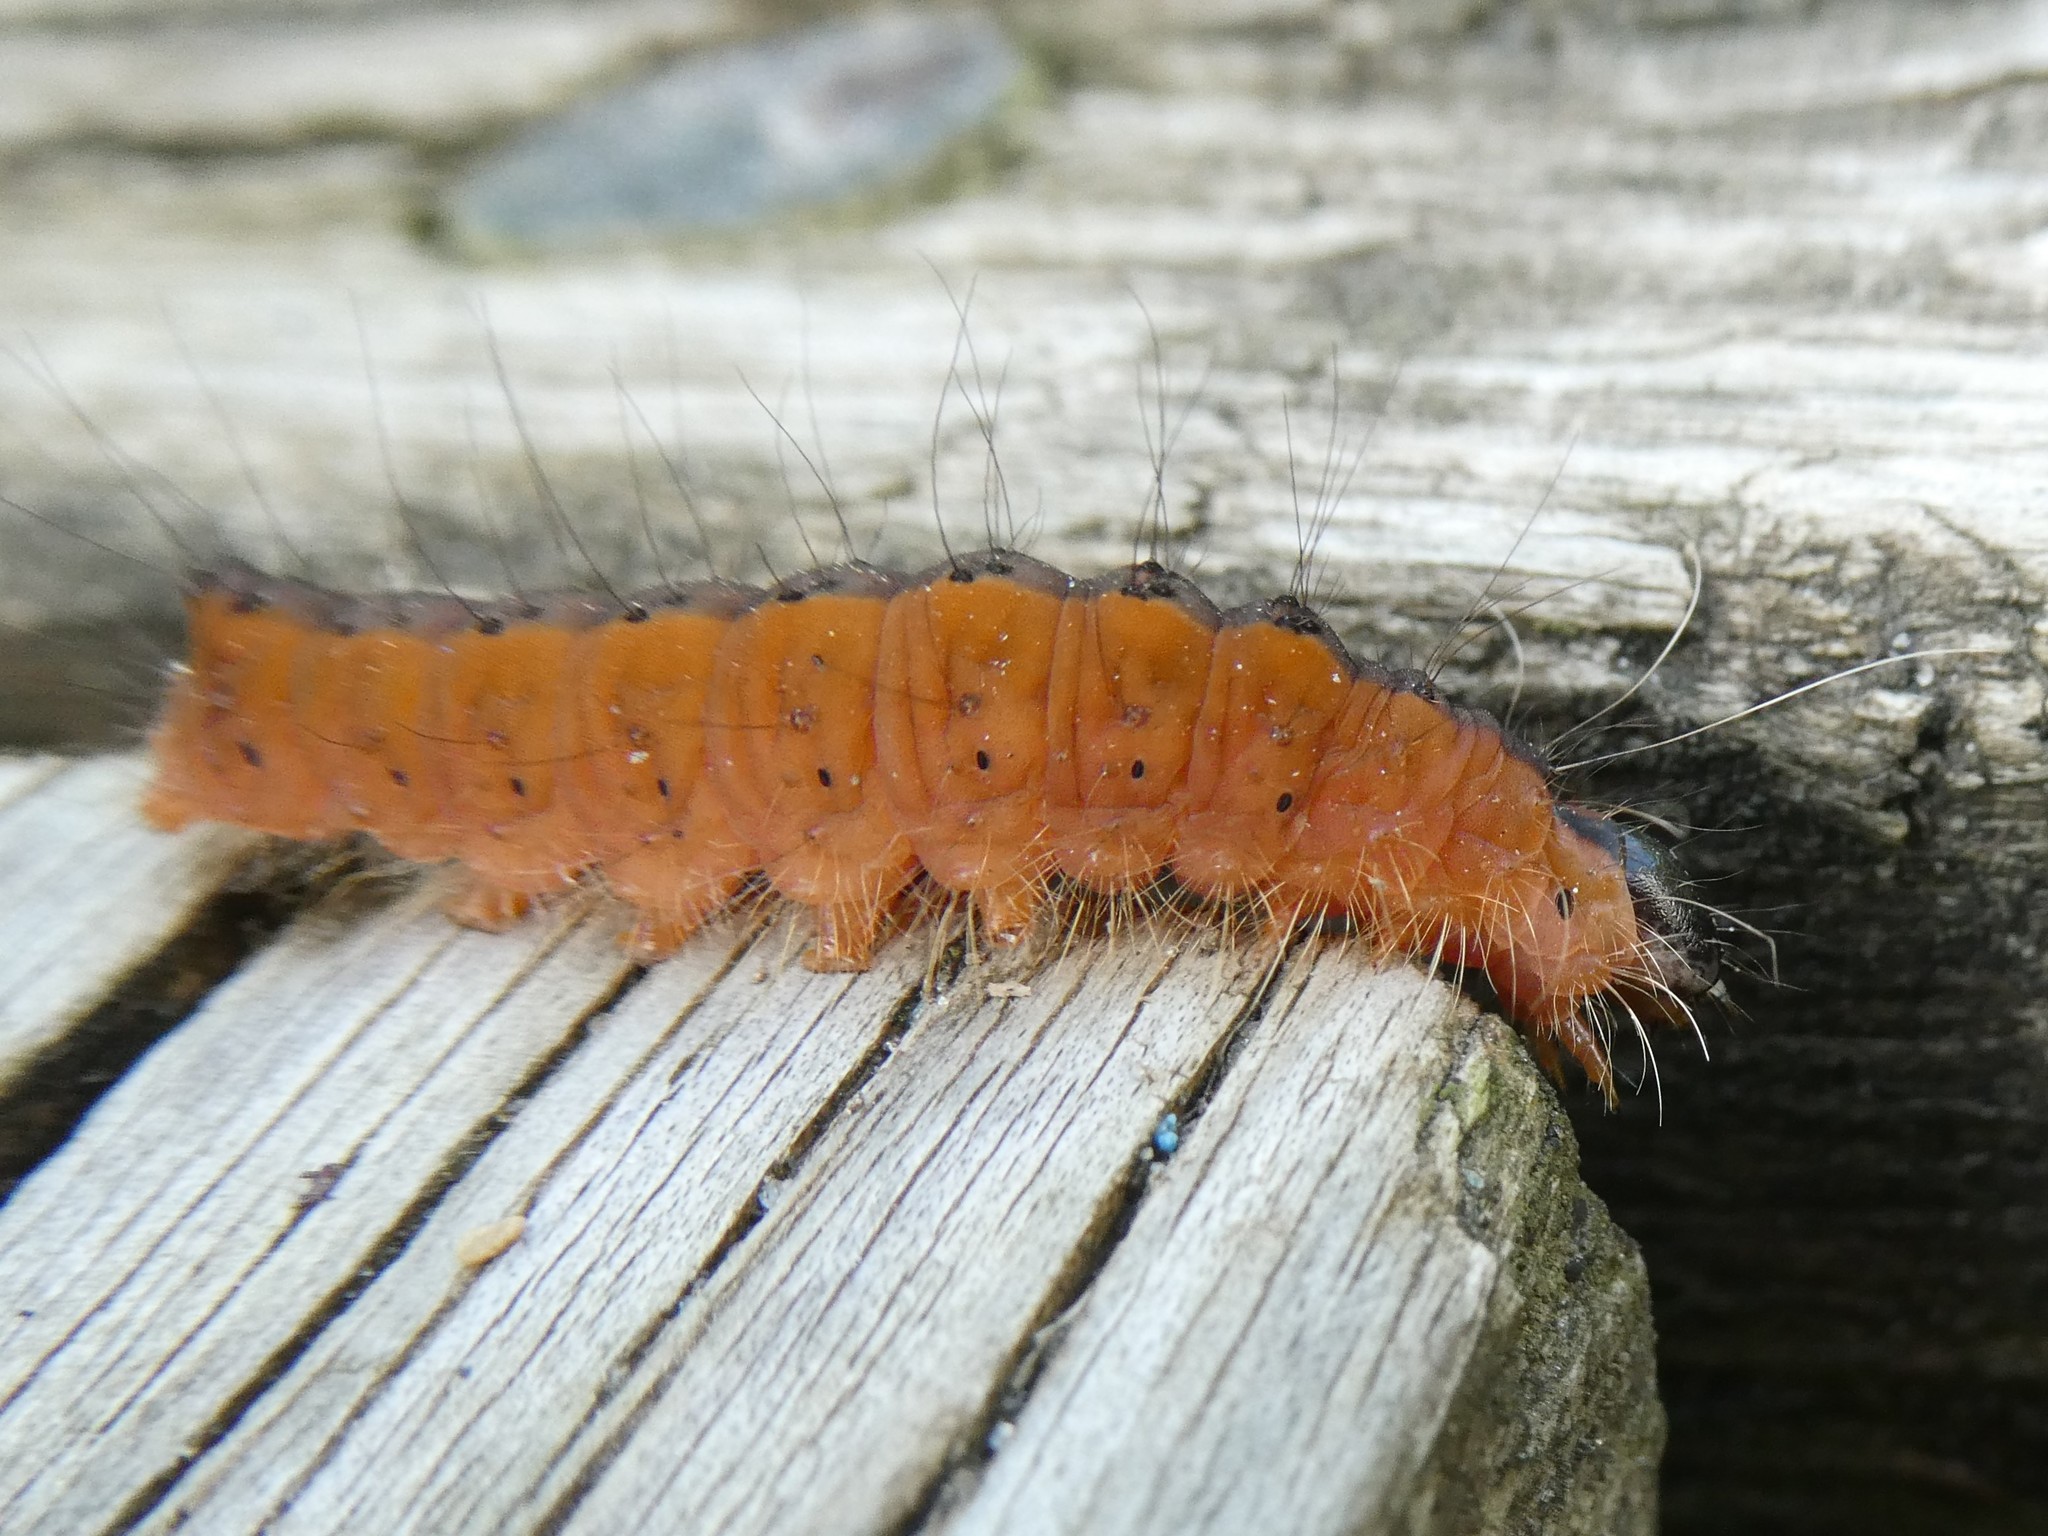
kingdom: Animalia
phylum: Arthropoda
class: Insecta
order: Lepidoptera
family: Noctuidae
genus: Acronicta
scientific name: Acronicta superans
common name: Splendid dagger
